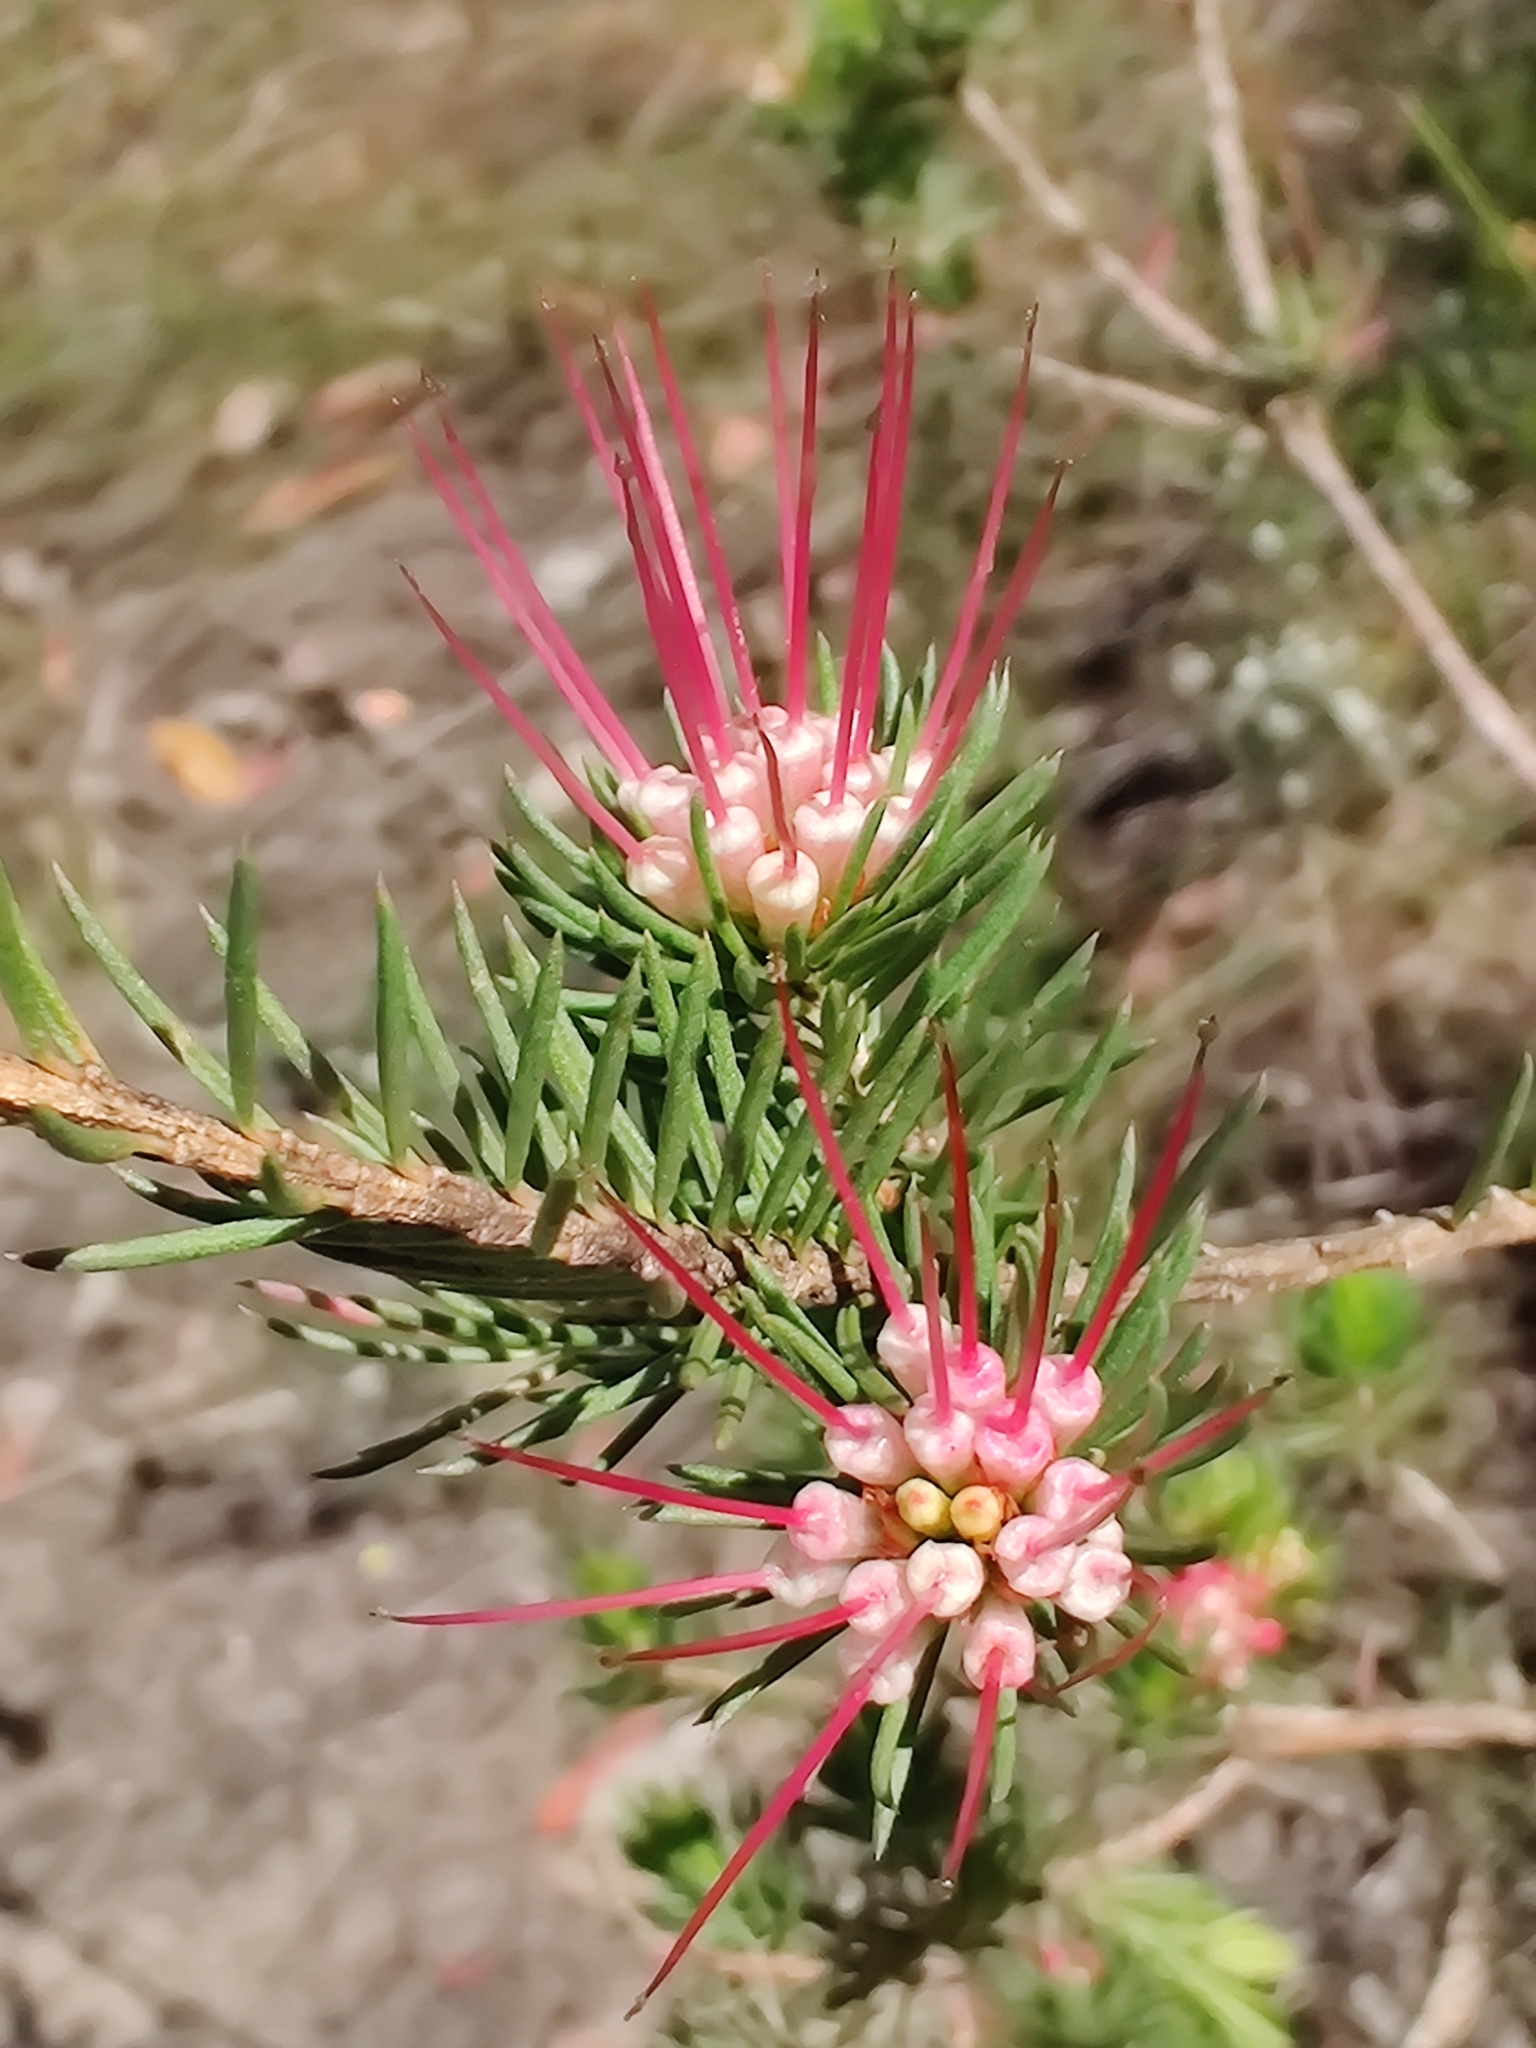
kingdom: Plantae
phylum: Tracheophyta
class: Magnoliopsida
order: Myrtales
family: Myrtaceae
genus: Darwinia
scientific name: Darwinia fascicularis
